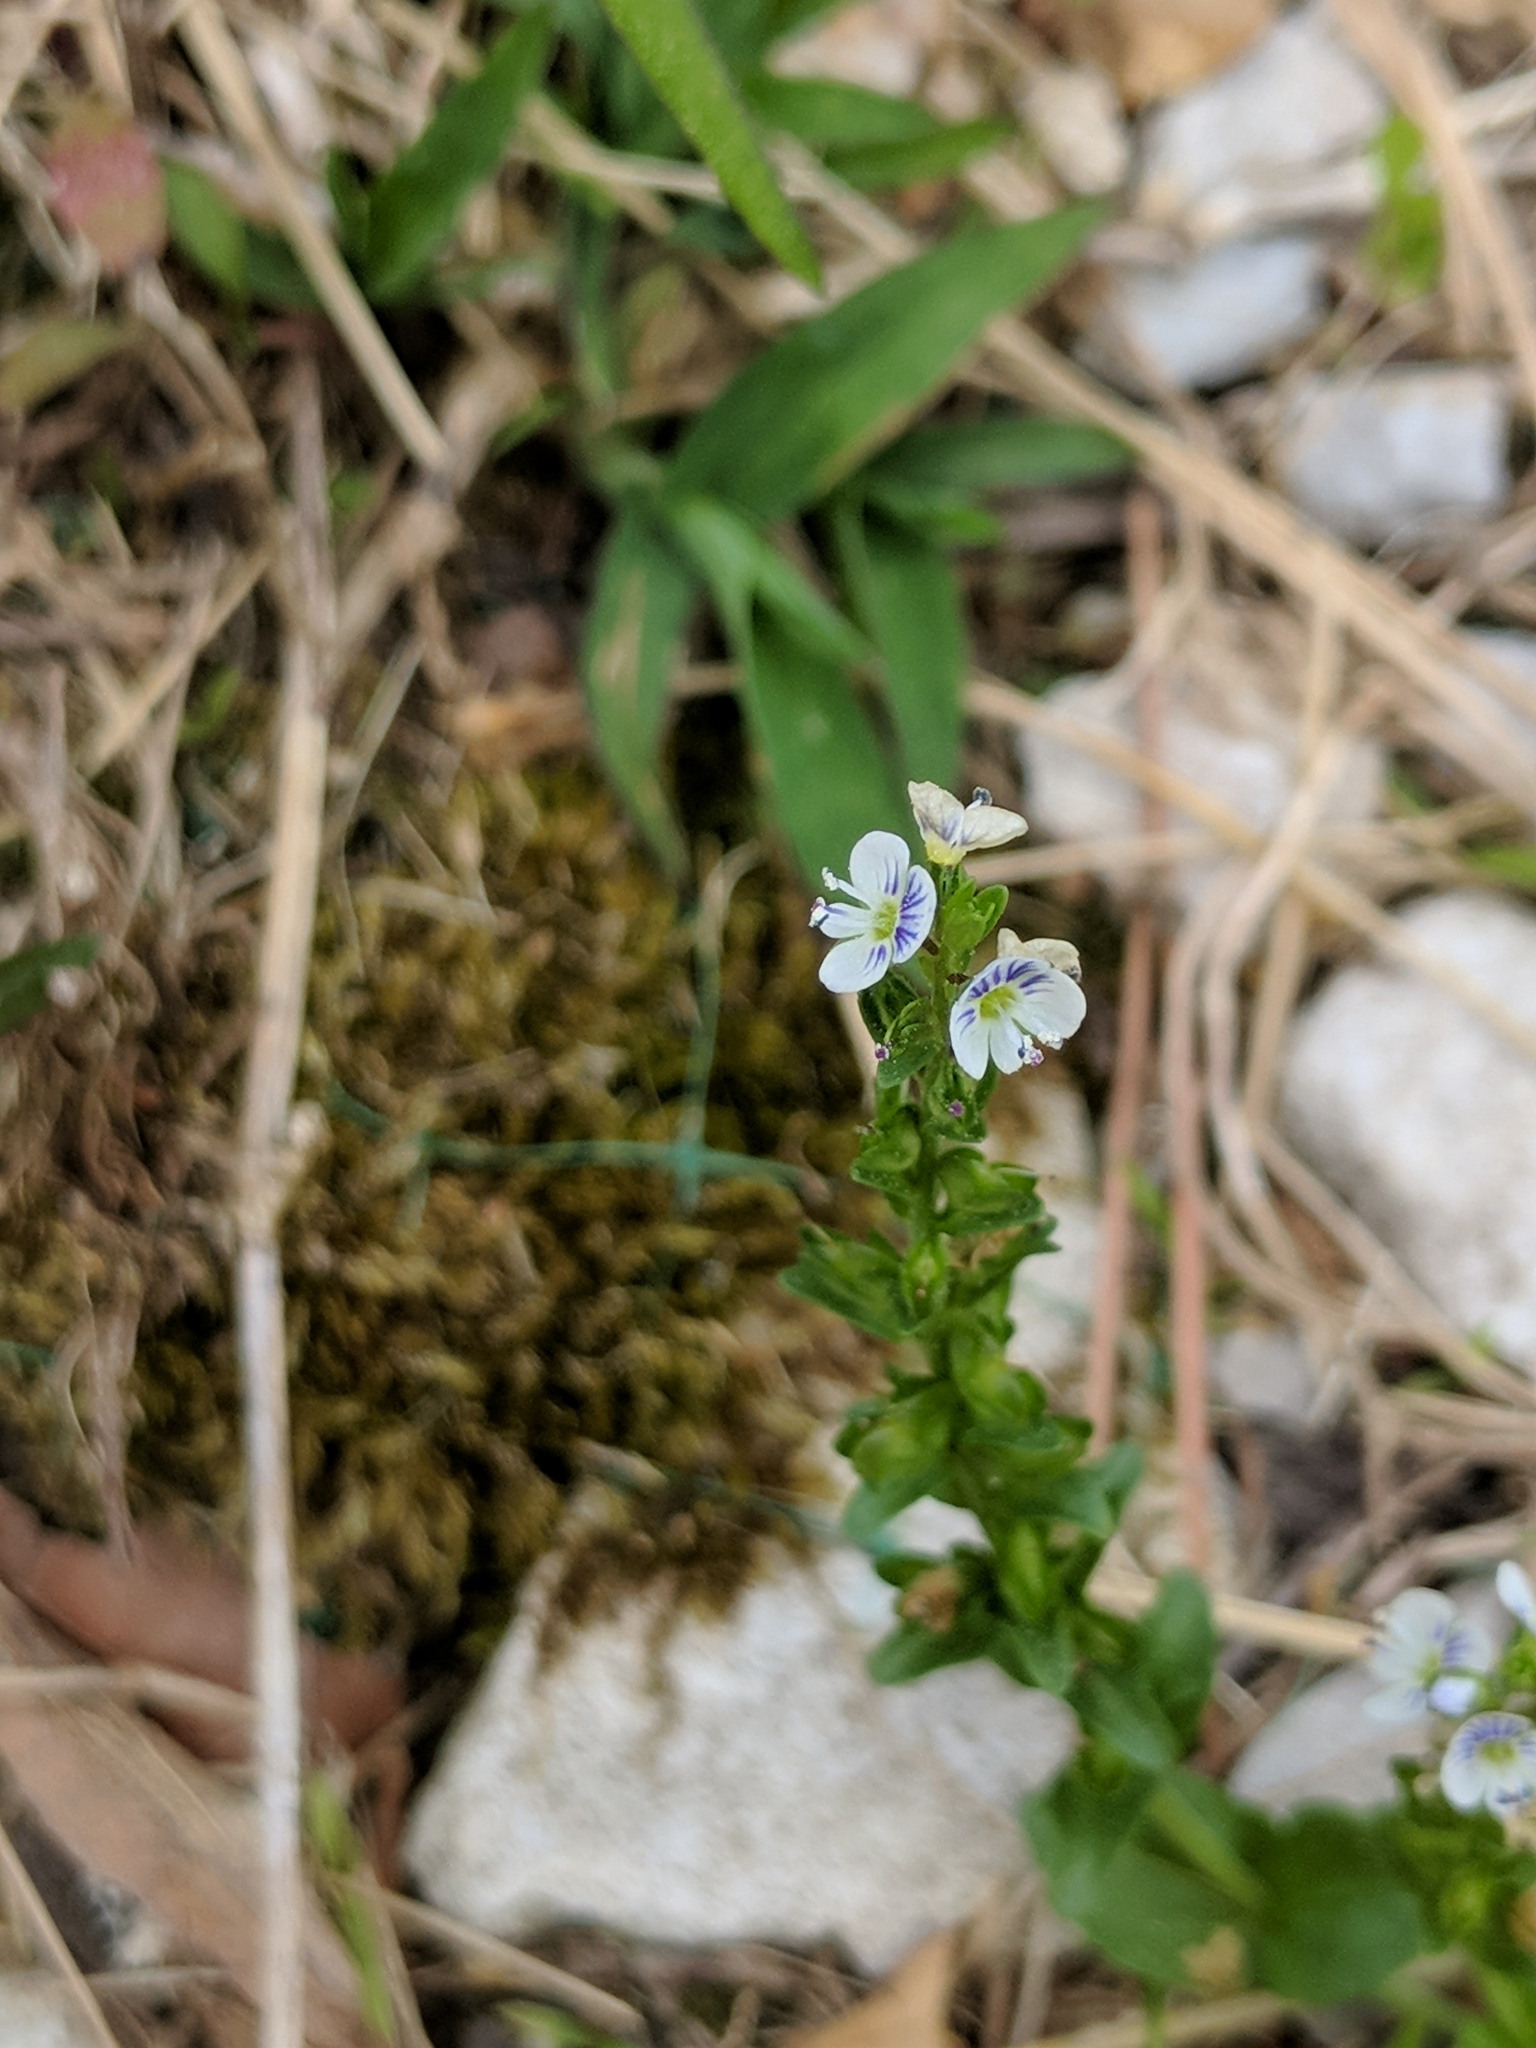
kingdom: Plantae
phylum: Tracheophyta
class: Magnoliopsida
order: Lamiales
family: Plantaginaceae
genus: Veronica
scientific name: Veronica serpyllifolia
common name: Thyme-leaved speedwell
